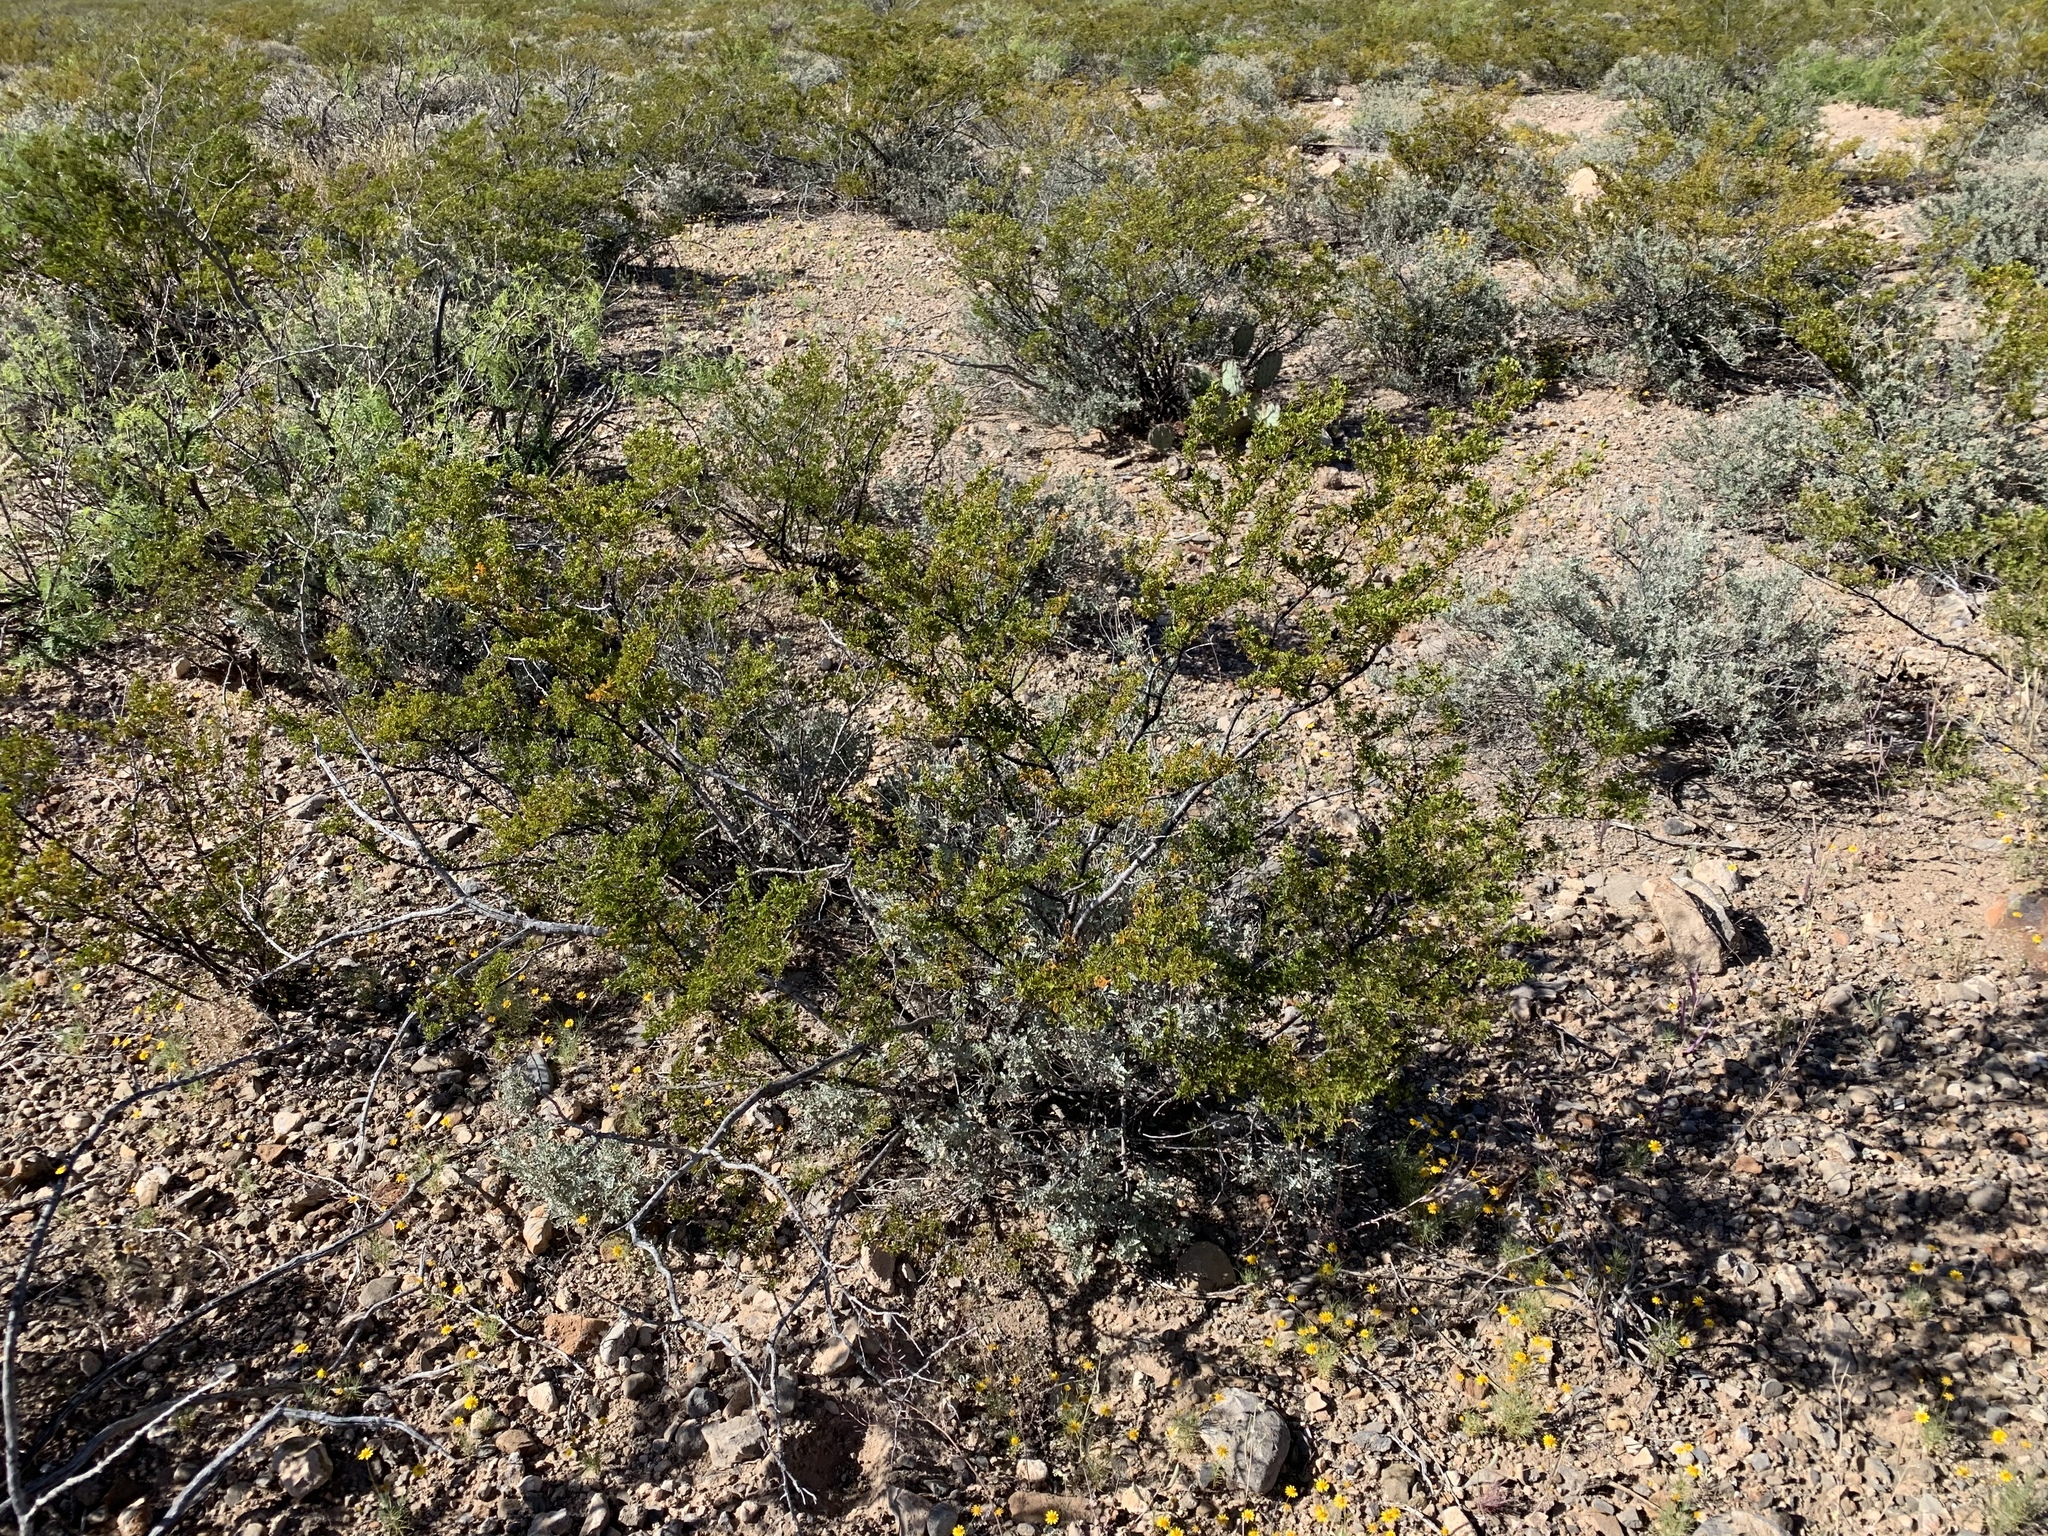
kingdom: Plantae
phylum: Tracheophyta
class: Magnoliopsida
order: Zygophyllales
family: Zygophyllaceae
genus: Larrea
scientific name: Larrea tridentata
